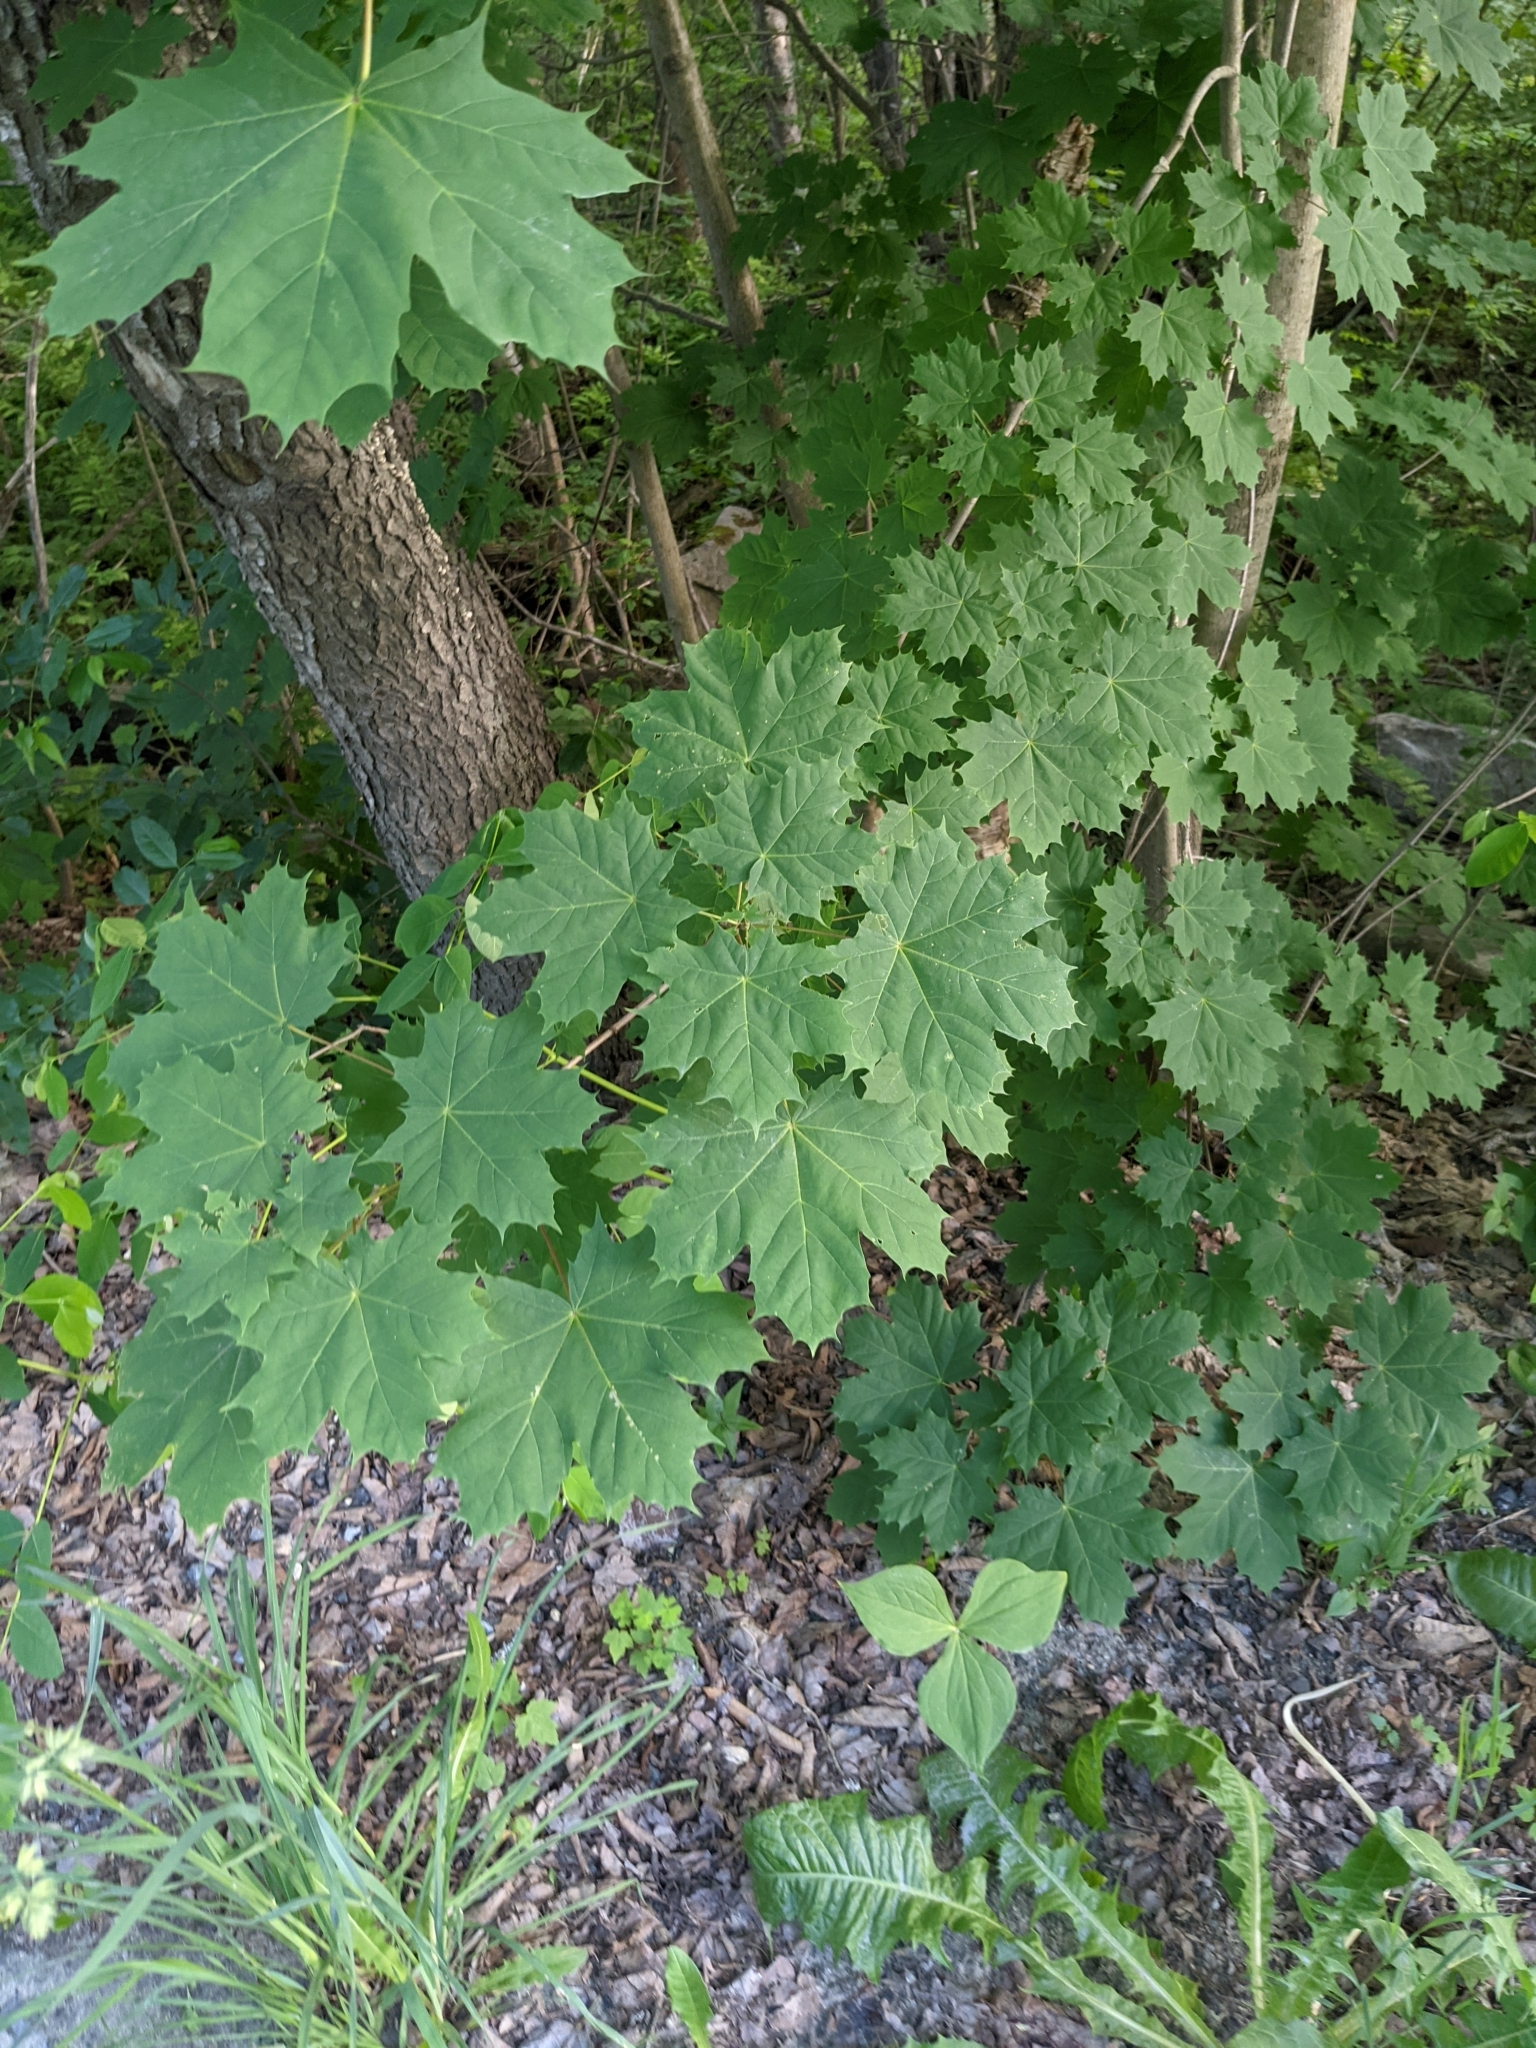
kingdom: Plantae
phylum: Tracheophyta
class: Magnoliopsida
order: Sapindales
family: Sapindaceae
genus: Acer
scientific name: Acer platanoides
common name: Norway maple
